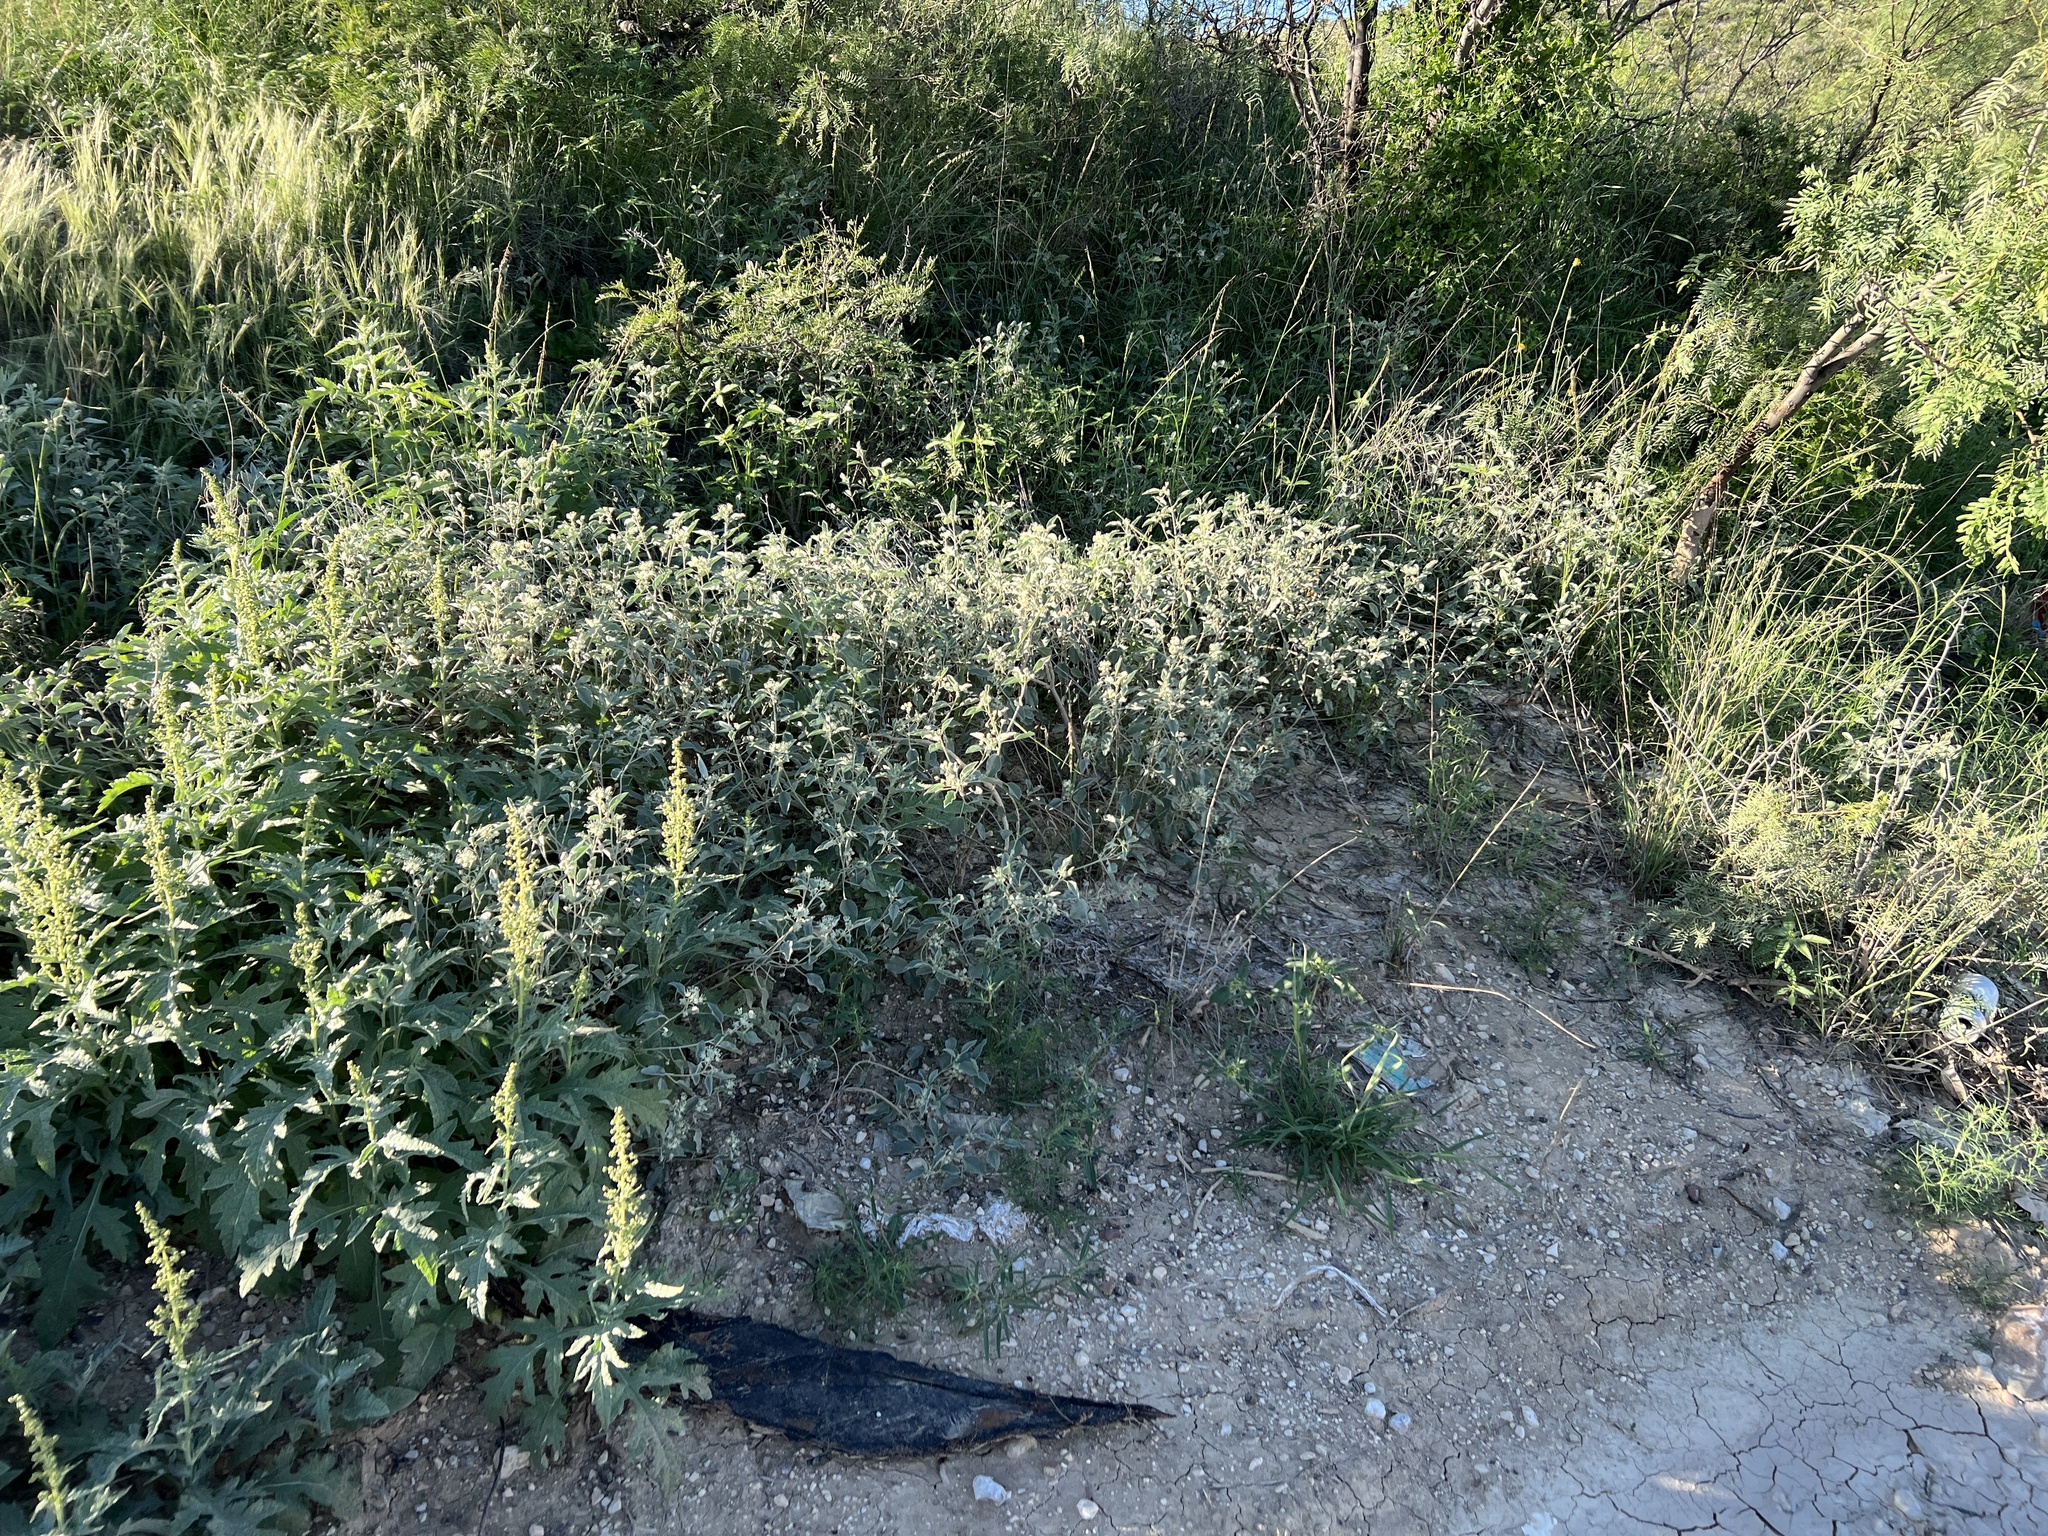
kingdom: Plantae
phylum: Tracheophyta
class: Magnoliopsida
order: Malpighiales
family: Euphorbiaceae
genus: Croton
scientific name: Croton pottsii
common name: Leatherweed
